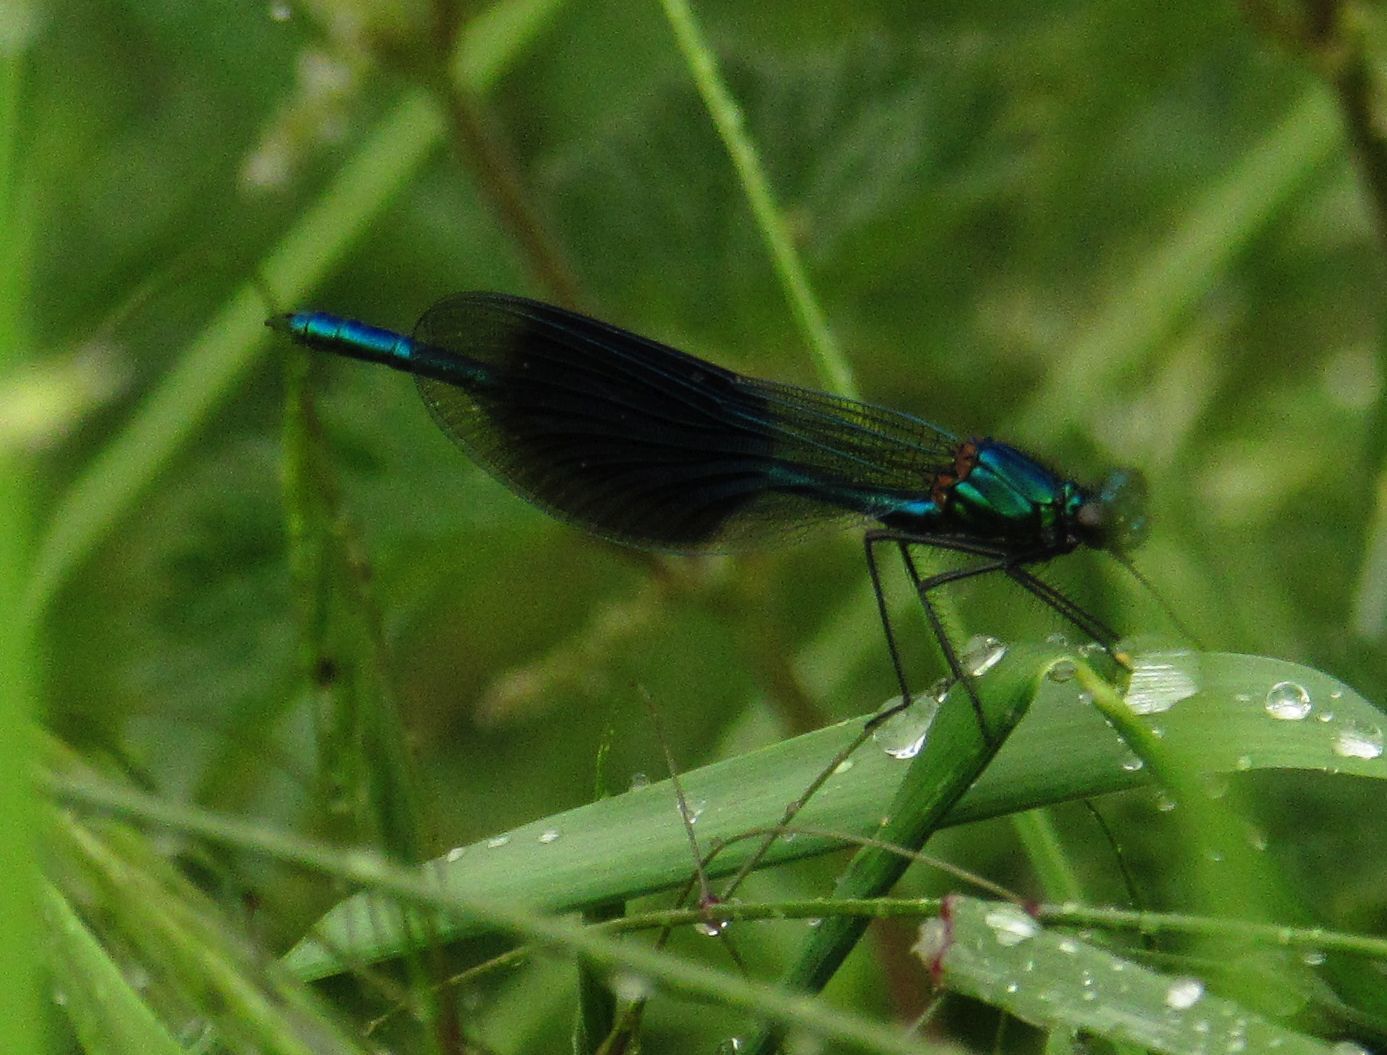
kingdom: Animalia
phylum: Arthropoda
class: Insecta
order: Odonata
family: Calopterygidae
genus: Calopteryx
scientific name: Calopteryx splendens
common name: Banded demoiselle
